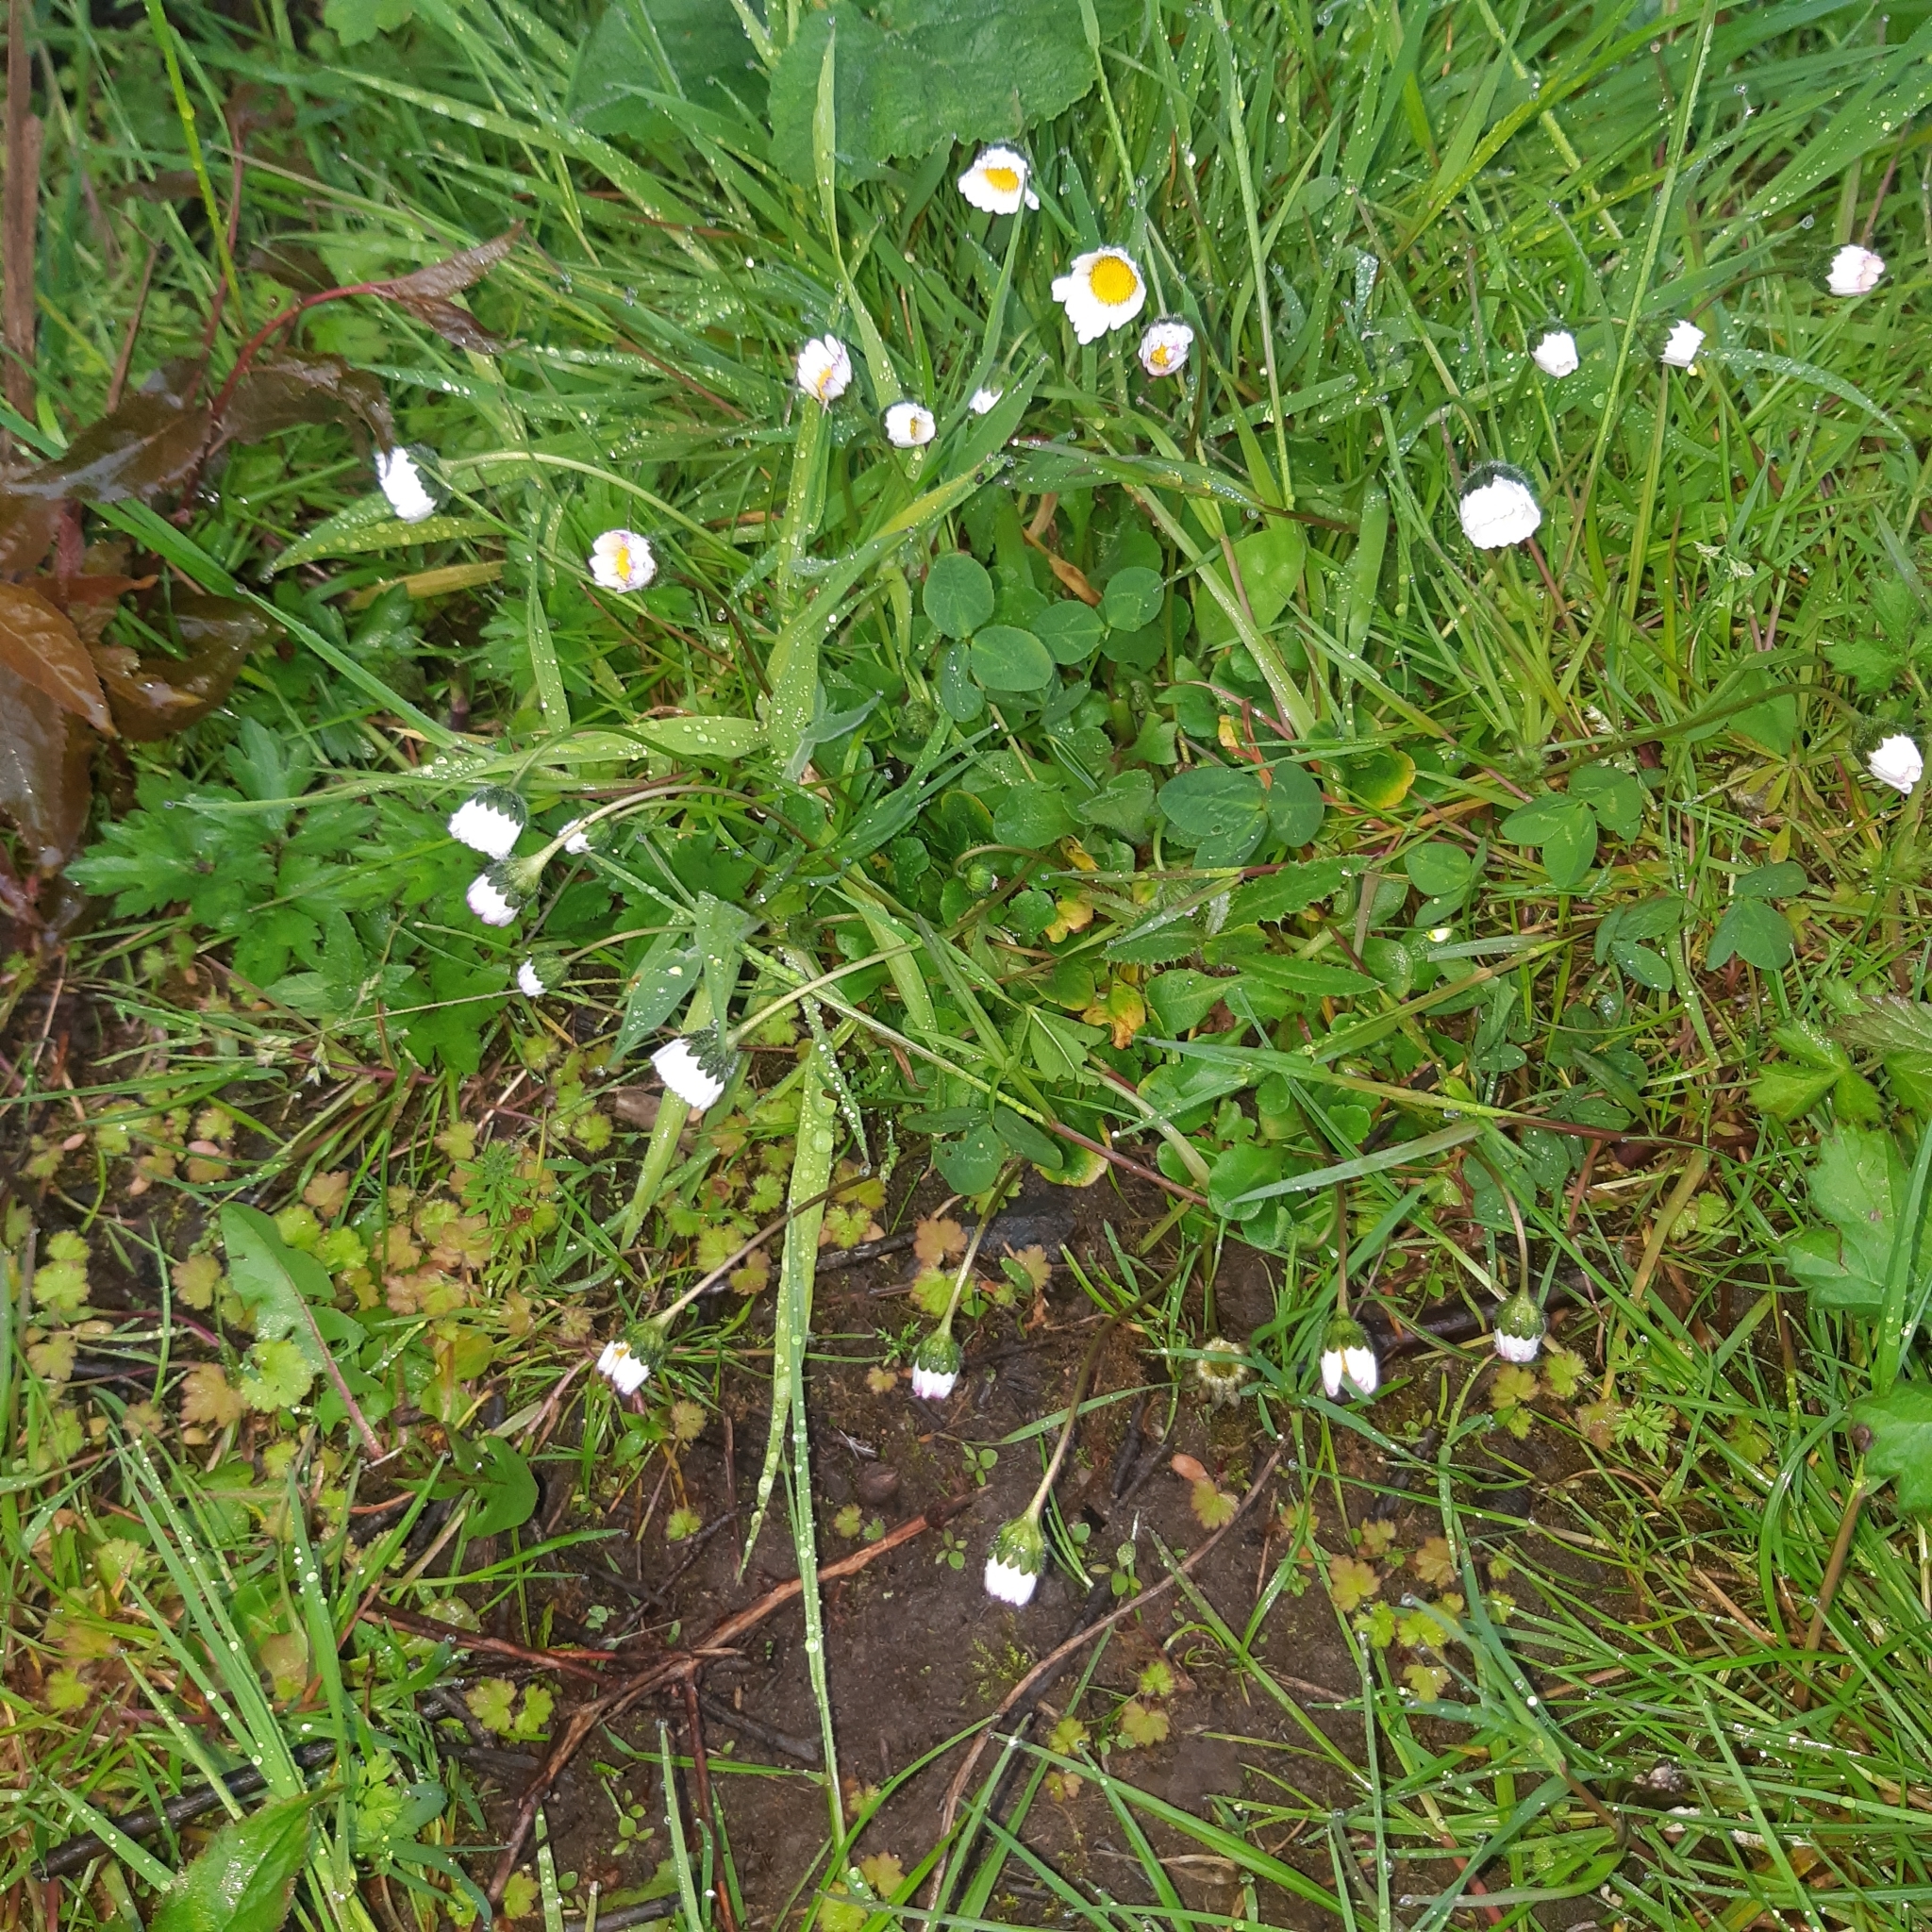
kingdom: Plantae
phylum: Tracheophyta
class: Magnoliopsida
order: Asterales
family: Asteraceae
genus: Bellis
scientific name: Bellis perennis
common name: Lawndaisy
